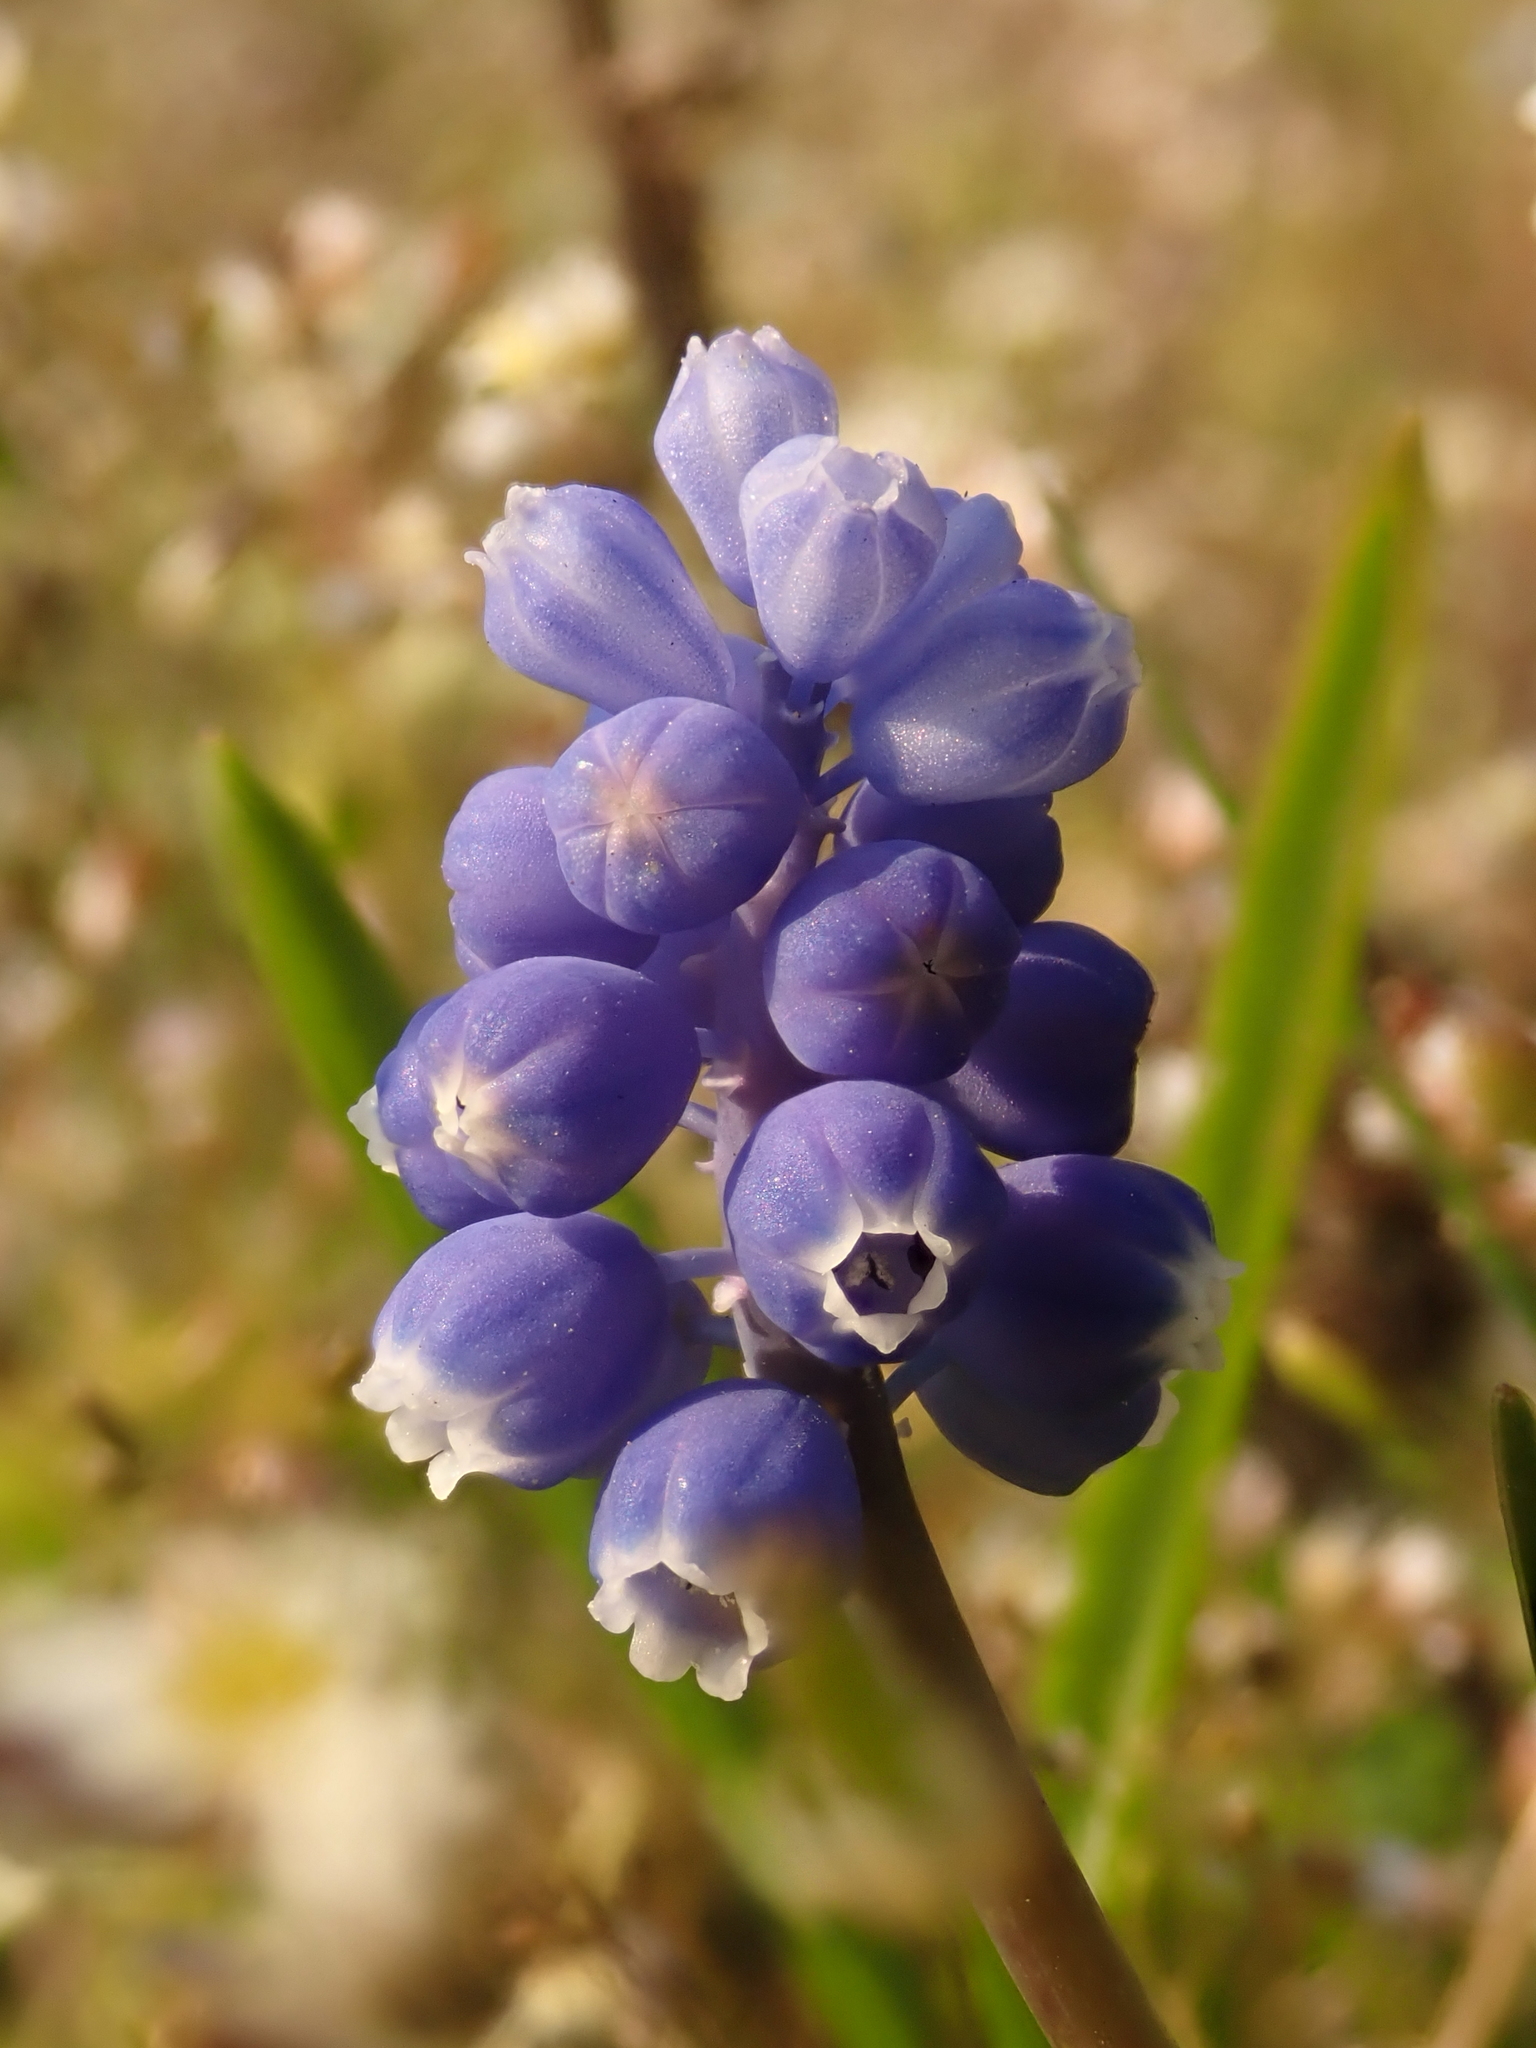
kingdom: Plantae
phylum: Tracheophyta
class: Liliopsida
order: Asparagales
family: Asparagaceae
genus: Muscari
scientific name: Muscari botryoides
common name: Compact grape-hyacinth
